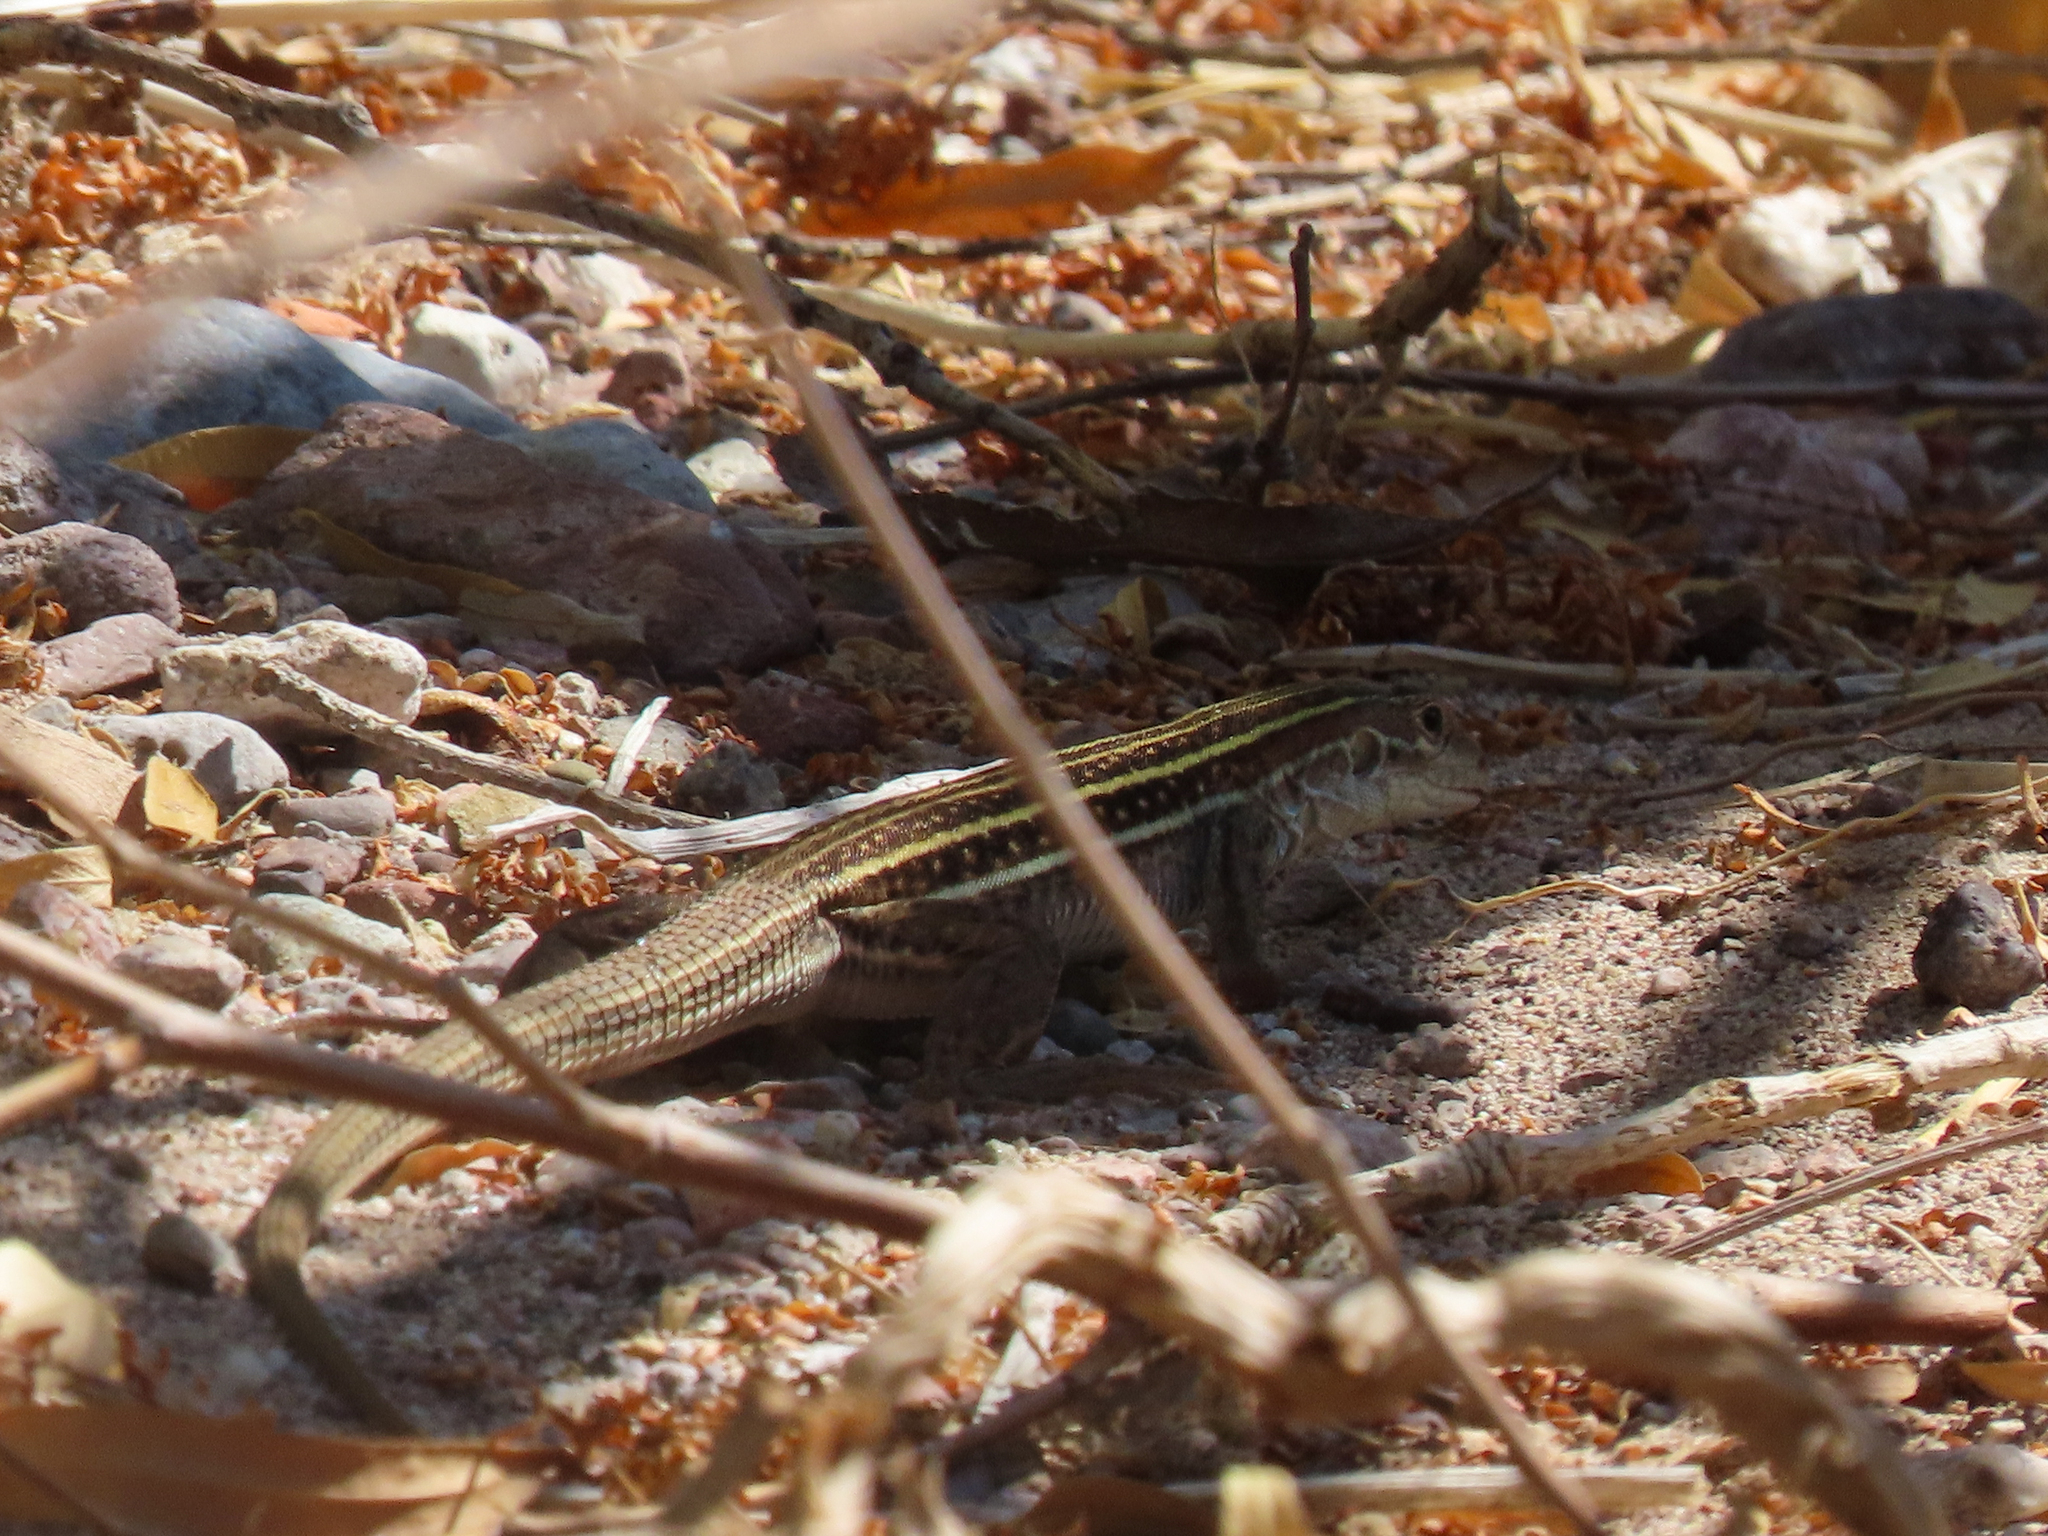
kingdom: Animalia
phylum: Chordata
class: Squamata
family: Teiidae
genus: Aspidoscelis
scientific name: Aspidoscelis sonorae
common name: Sonoran spotted whiptail
